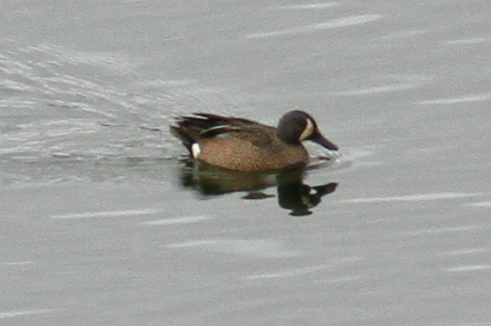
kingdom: Animalia
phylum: Chordata
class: Aves
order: Anseriformes
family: Anatidae
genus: Spatula
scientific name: Spatula discors
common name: Blue-winged teal
